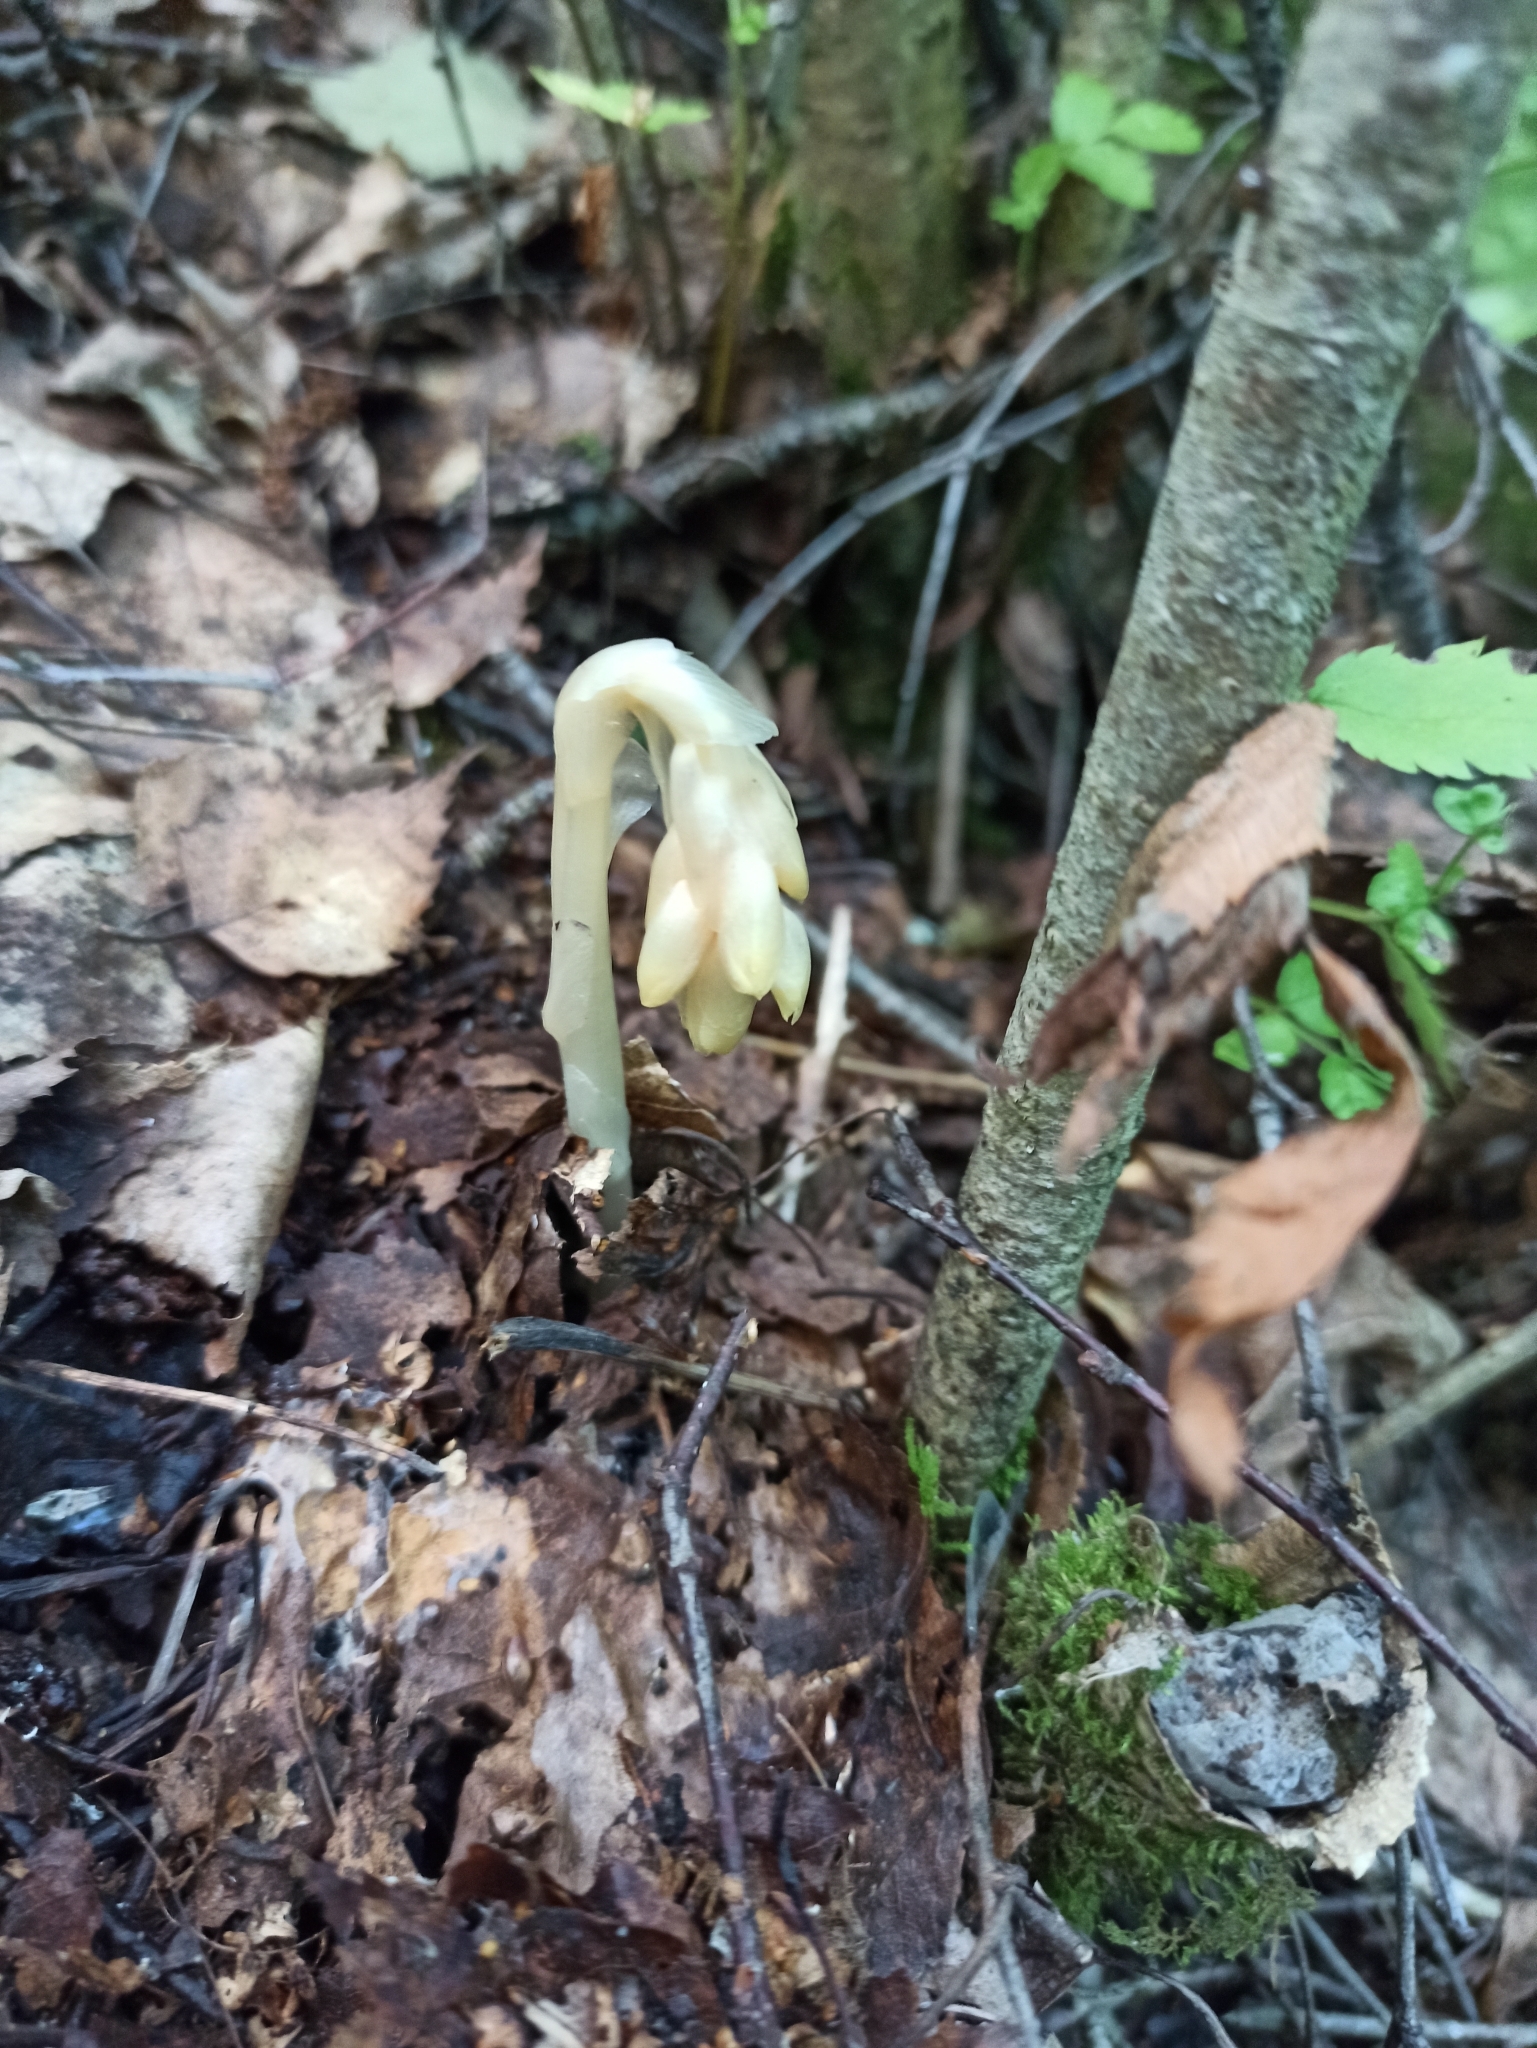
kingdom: Plantae
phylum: Tracheophyta
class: Magnoliopsida
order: Ericales
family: Ericaceae
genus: Hypopitys
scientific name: Hypopitys monotropa
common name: Yellow bird's-nest
